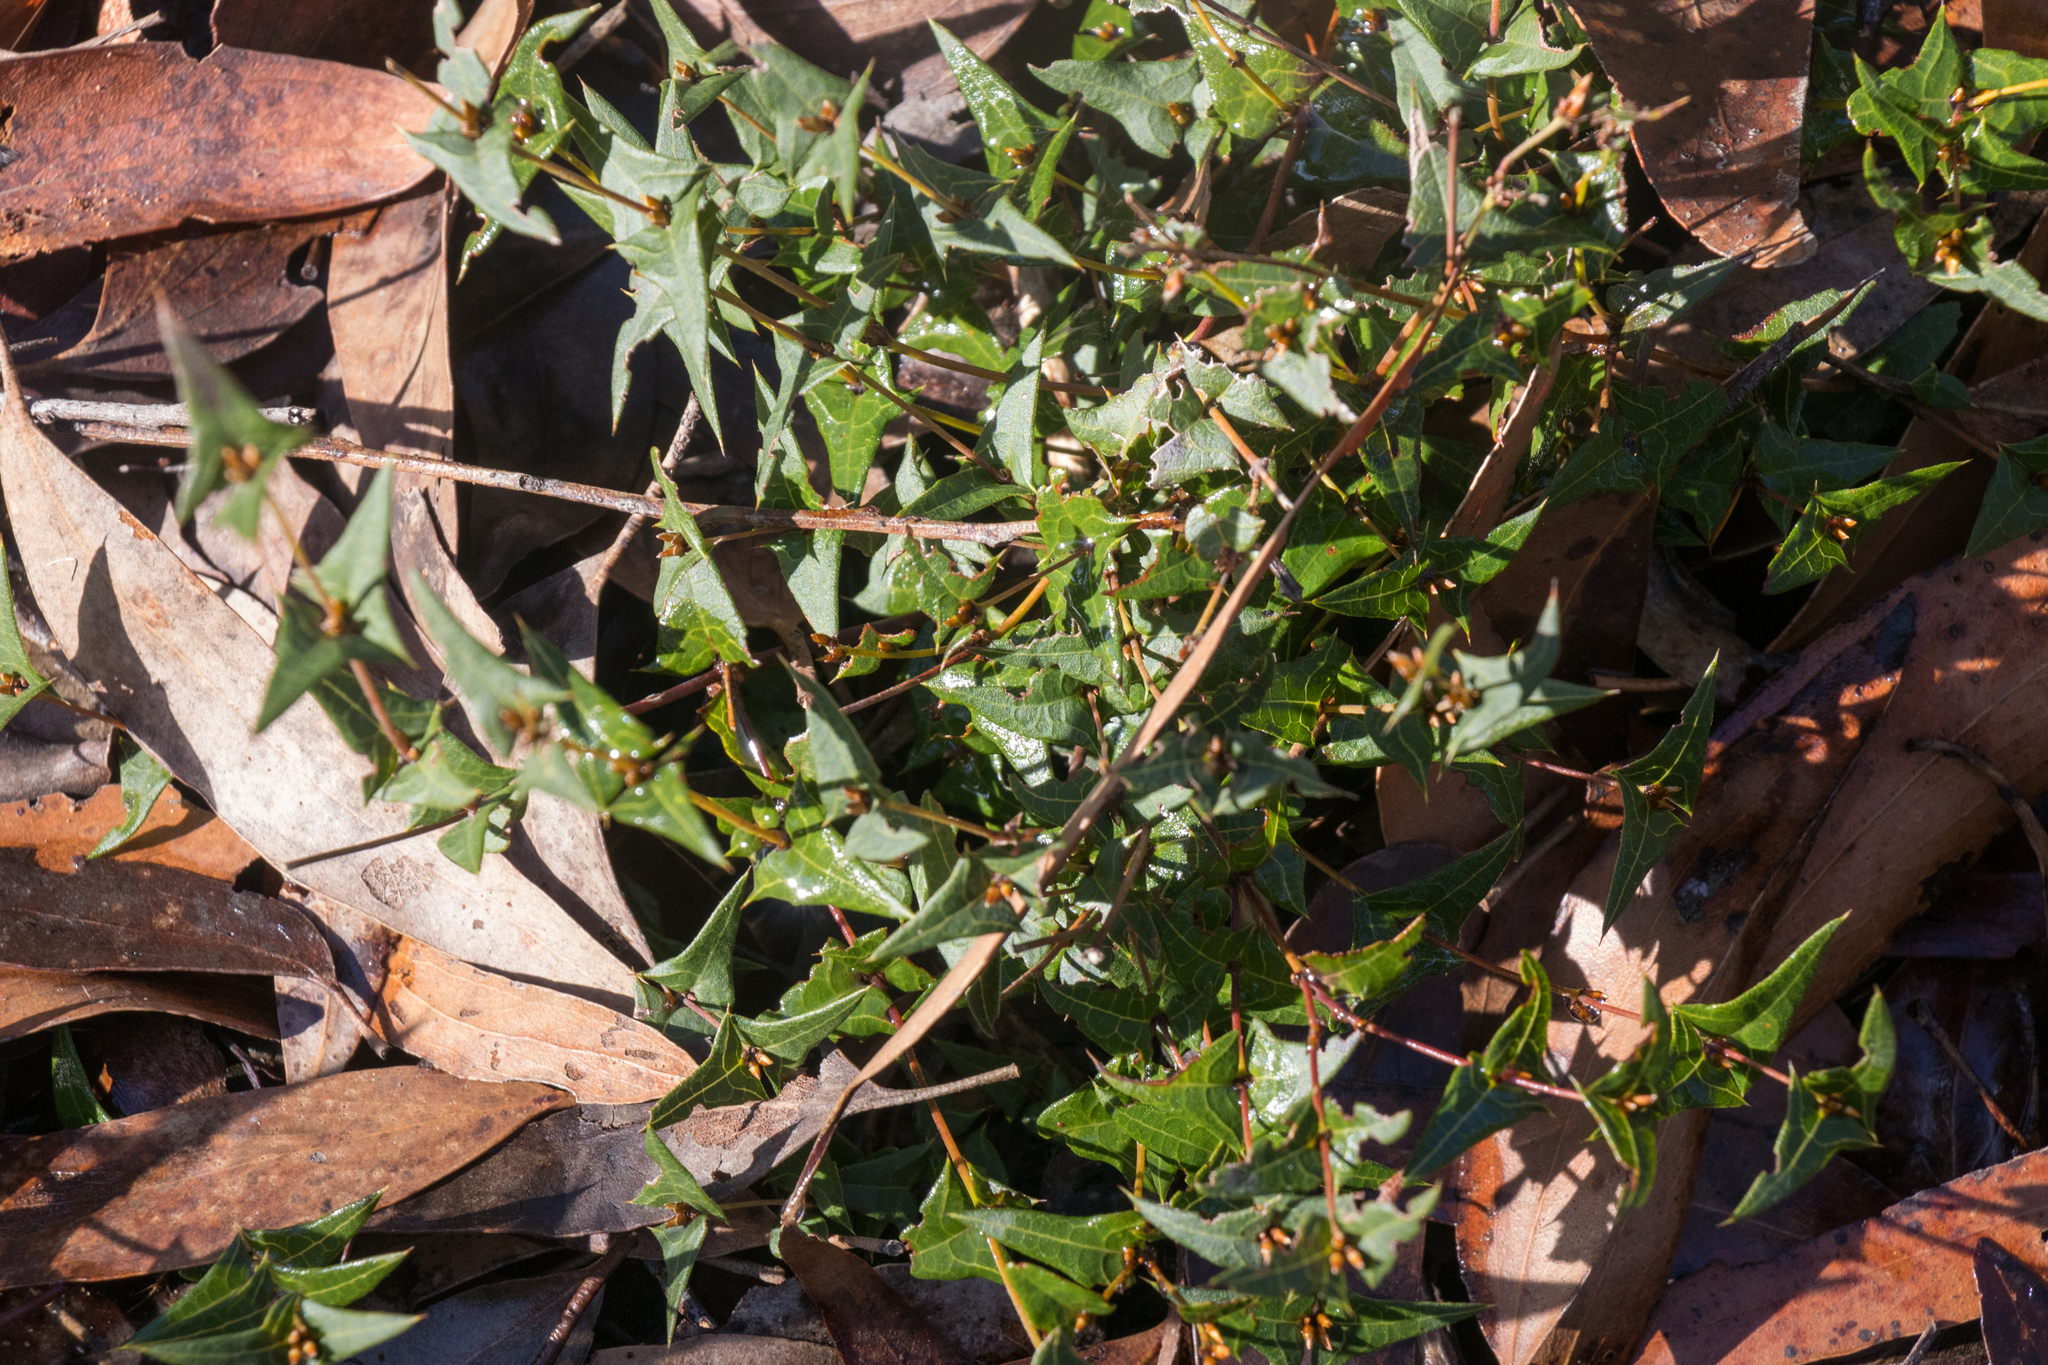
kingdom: Plantae
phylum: Tracheophyta
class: Magnoliopsida
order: Fabales
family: Fabaceae
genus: Platylobium
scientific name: Platylobium obtusangulum
